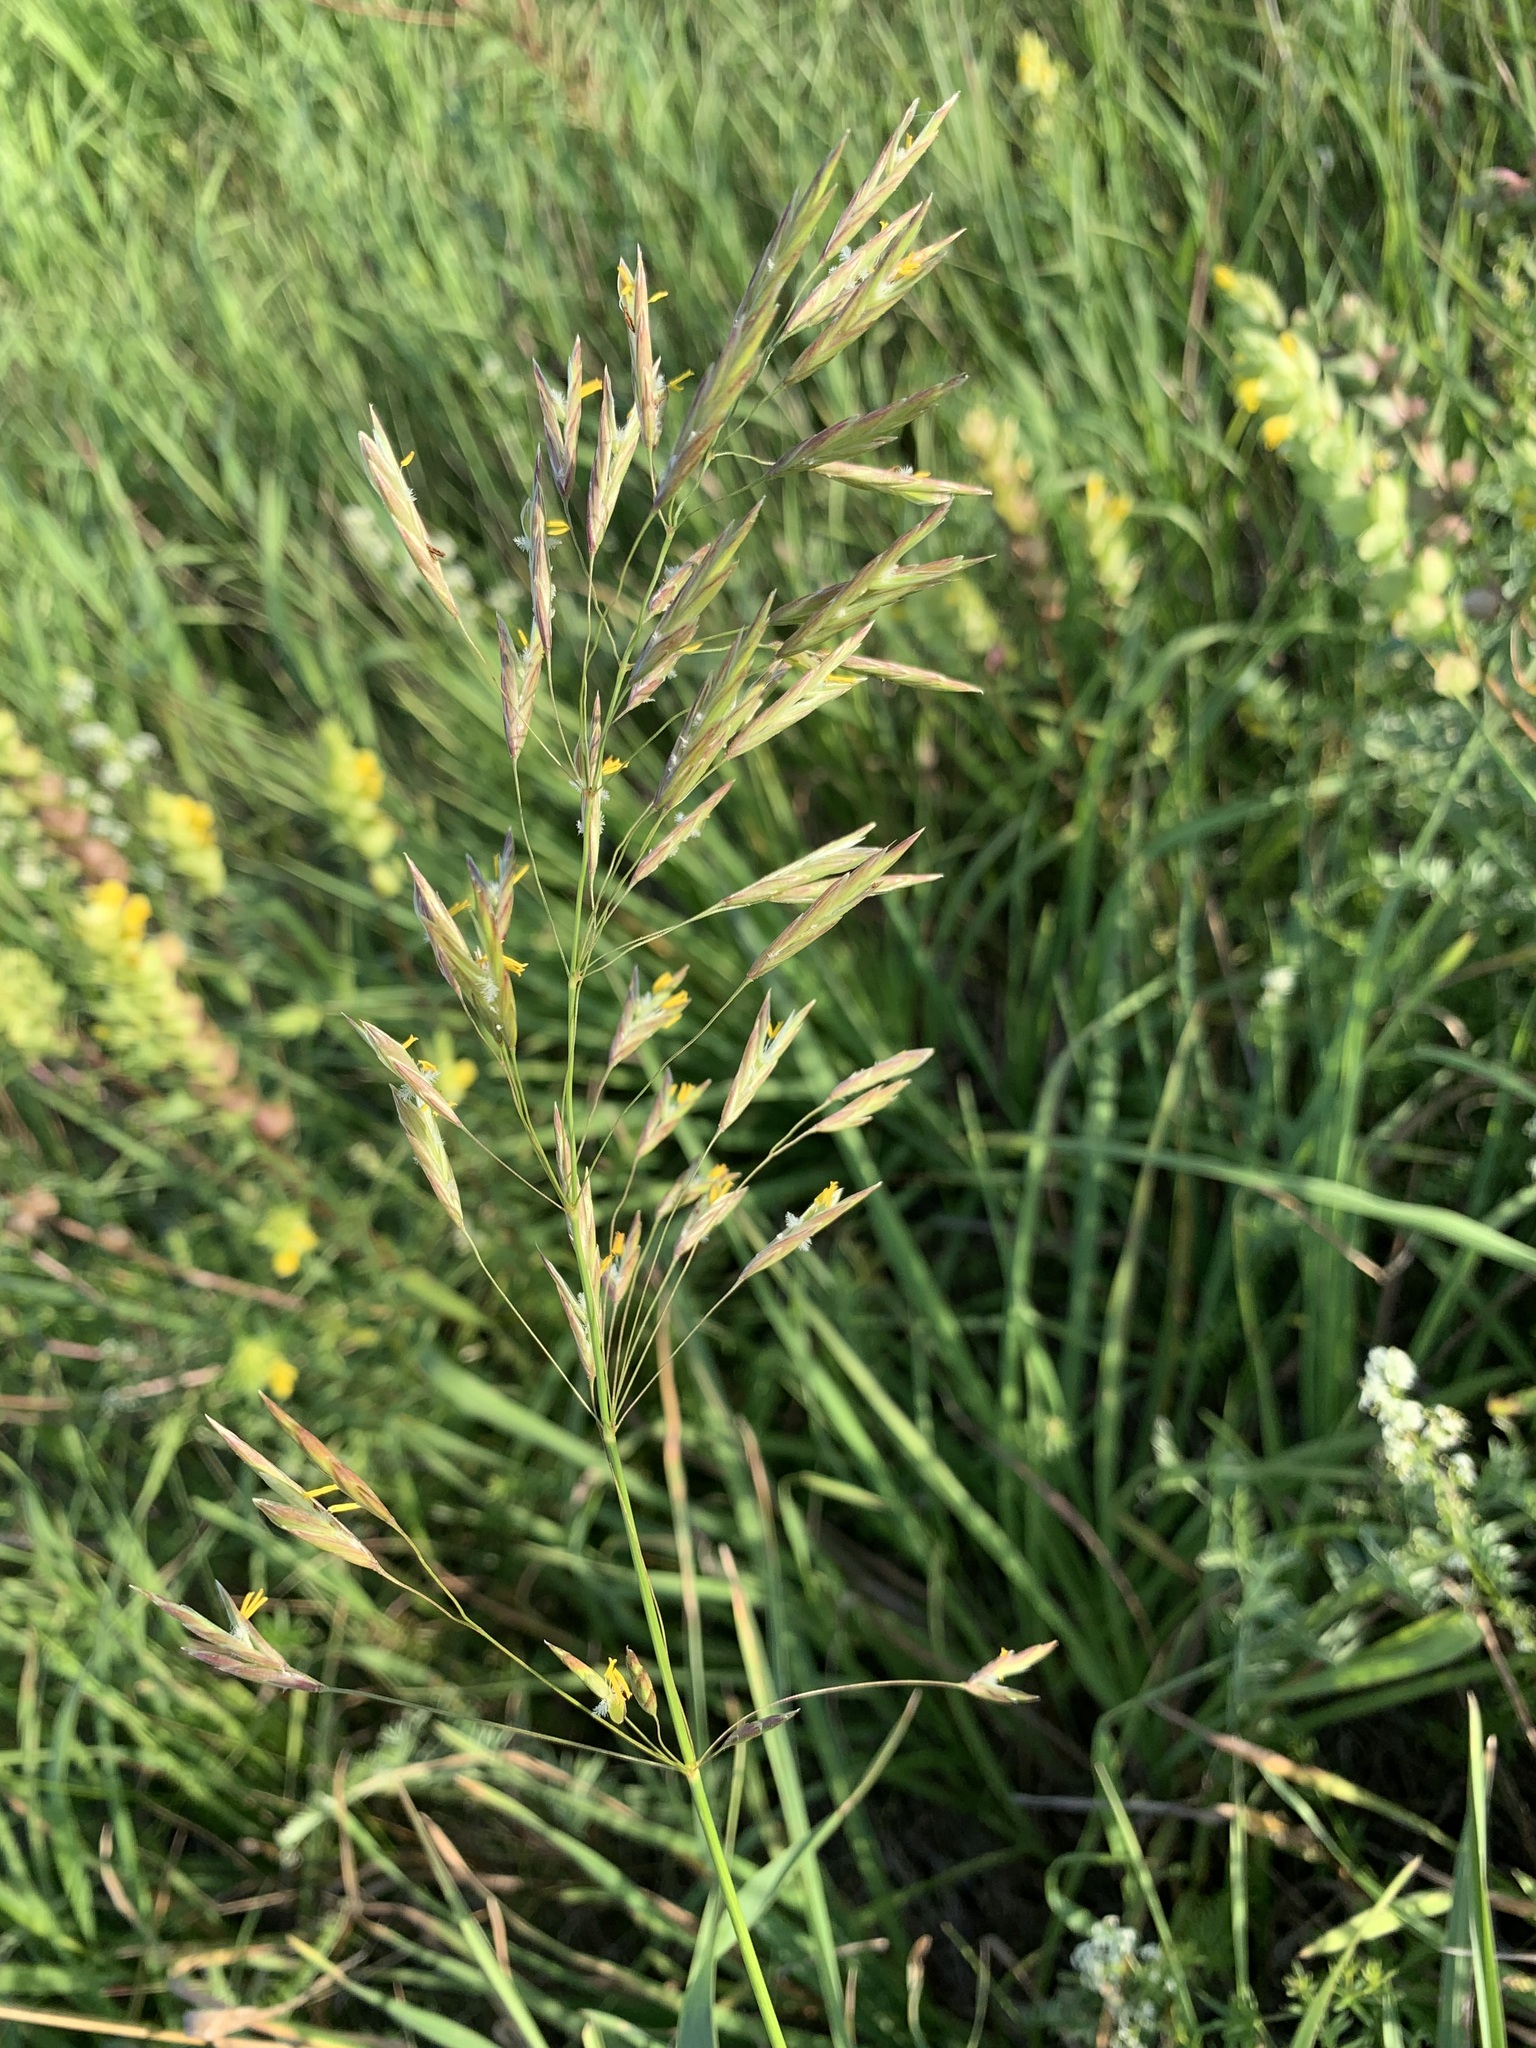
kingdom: Plantae
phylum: Tracheophyta
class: Liliopsida
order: Poales
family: Poaceae
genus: Bromus
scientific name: Bromus inermis
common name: Smooth brome
